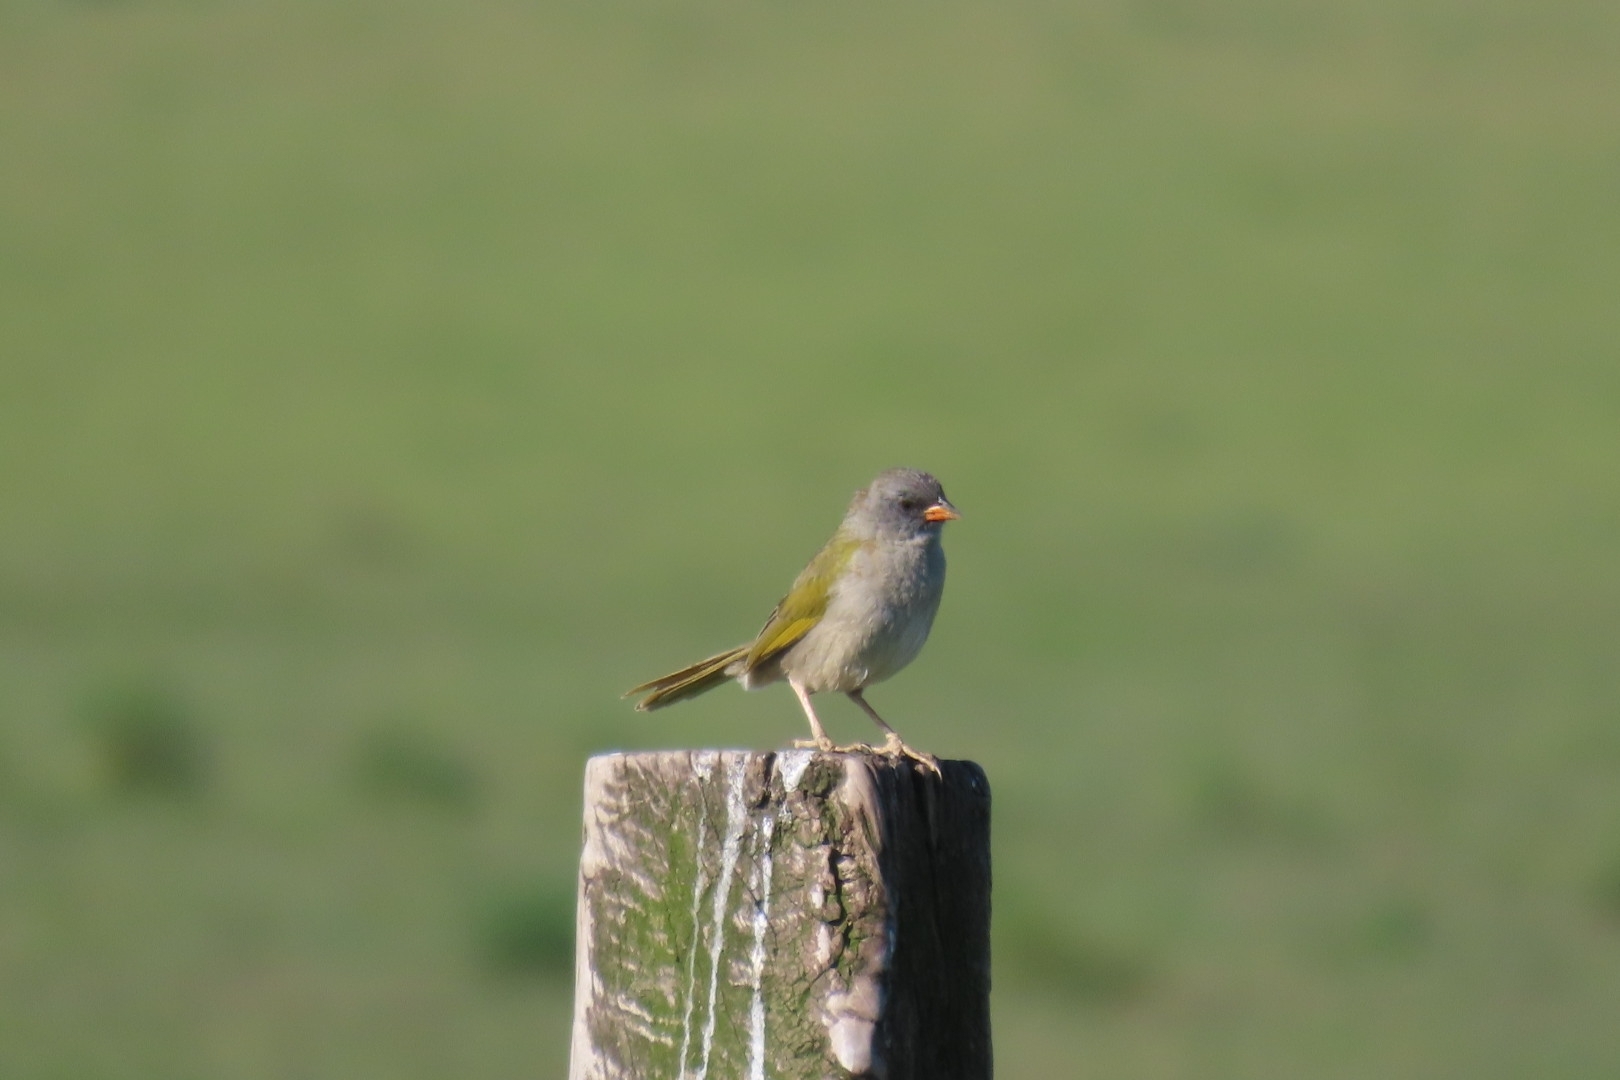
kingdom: Animalia
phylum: Chordata
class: Aves
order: Passeriformes
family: Thraupidae
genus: Embernagra
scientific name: Embernagra platensis
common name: Pampa finch
